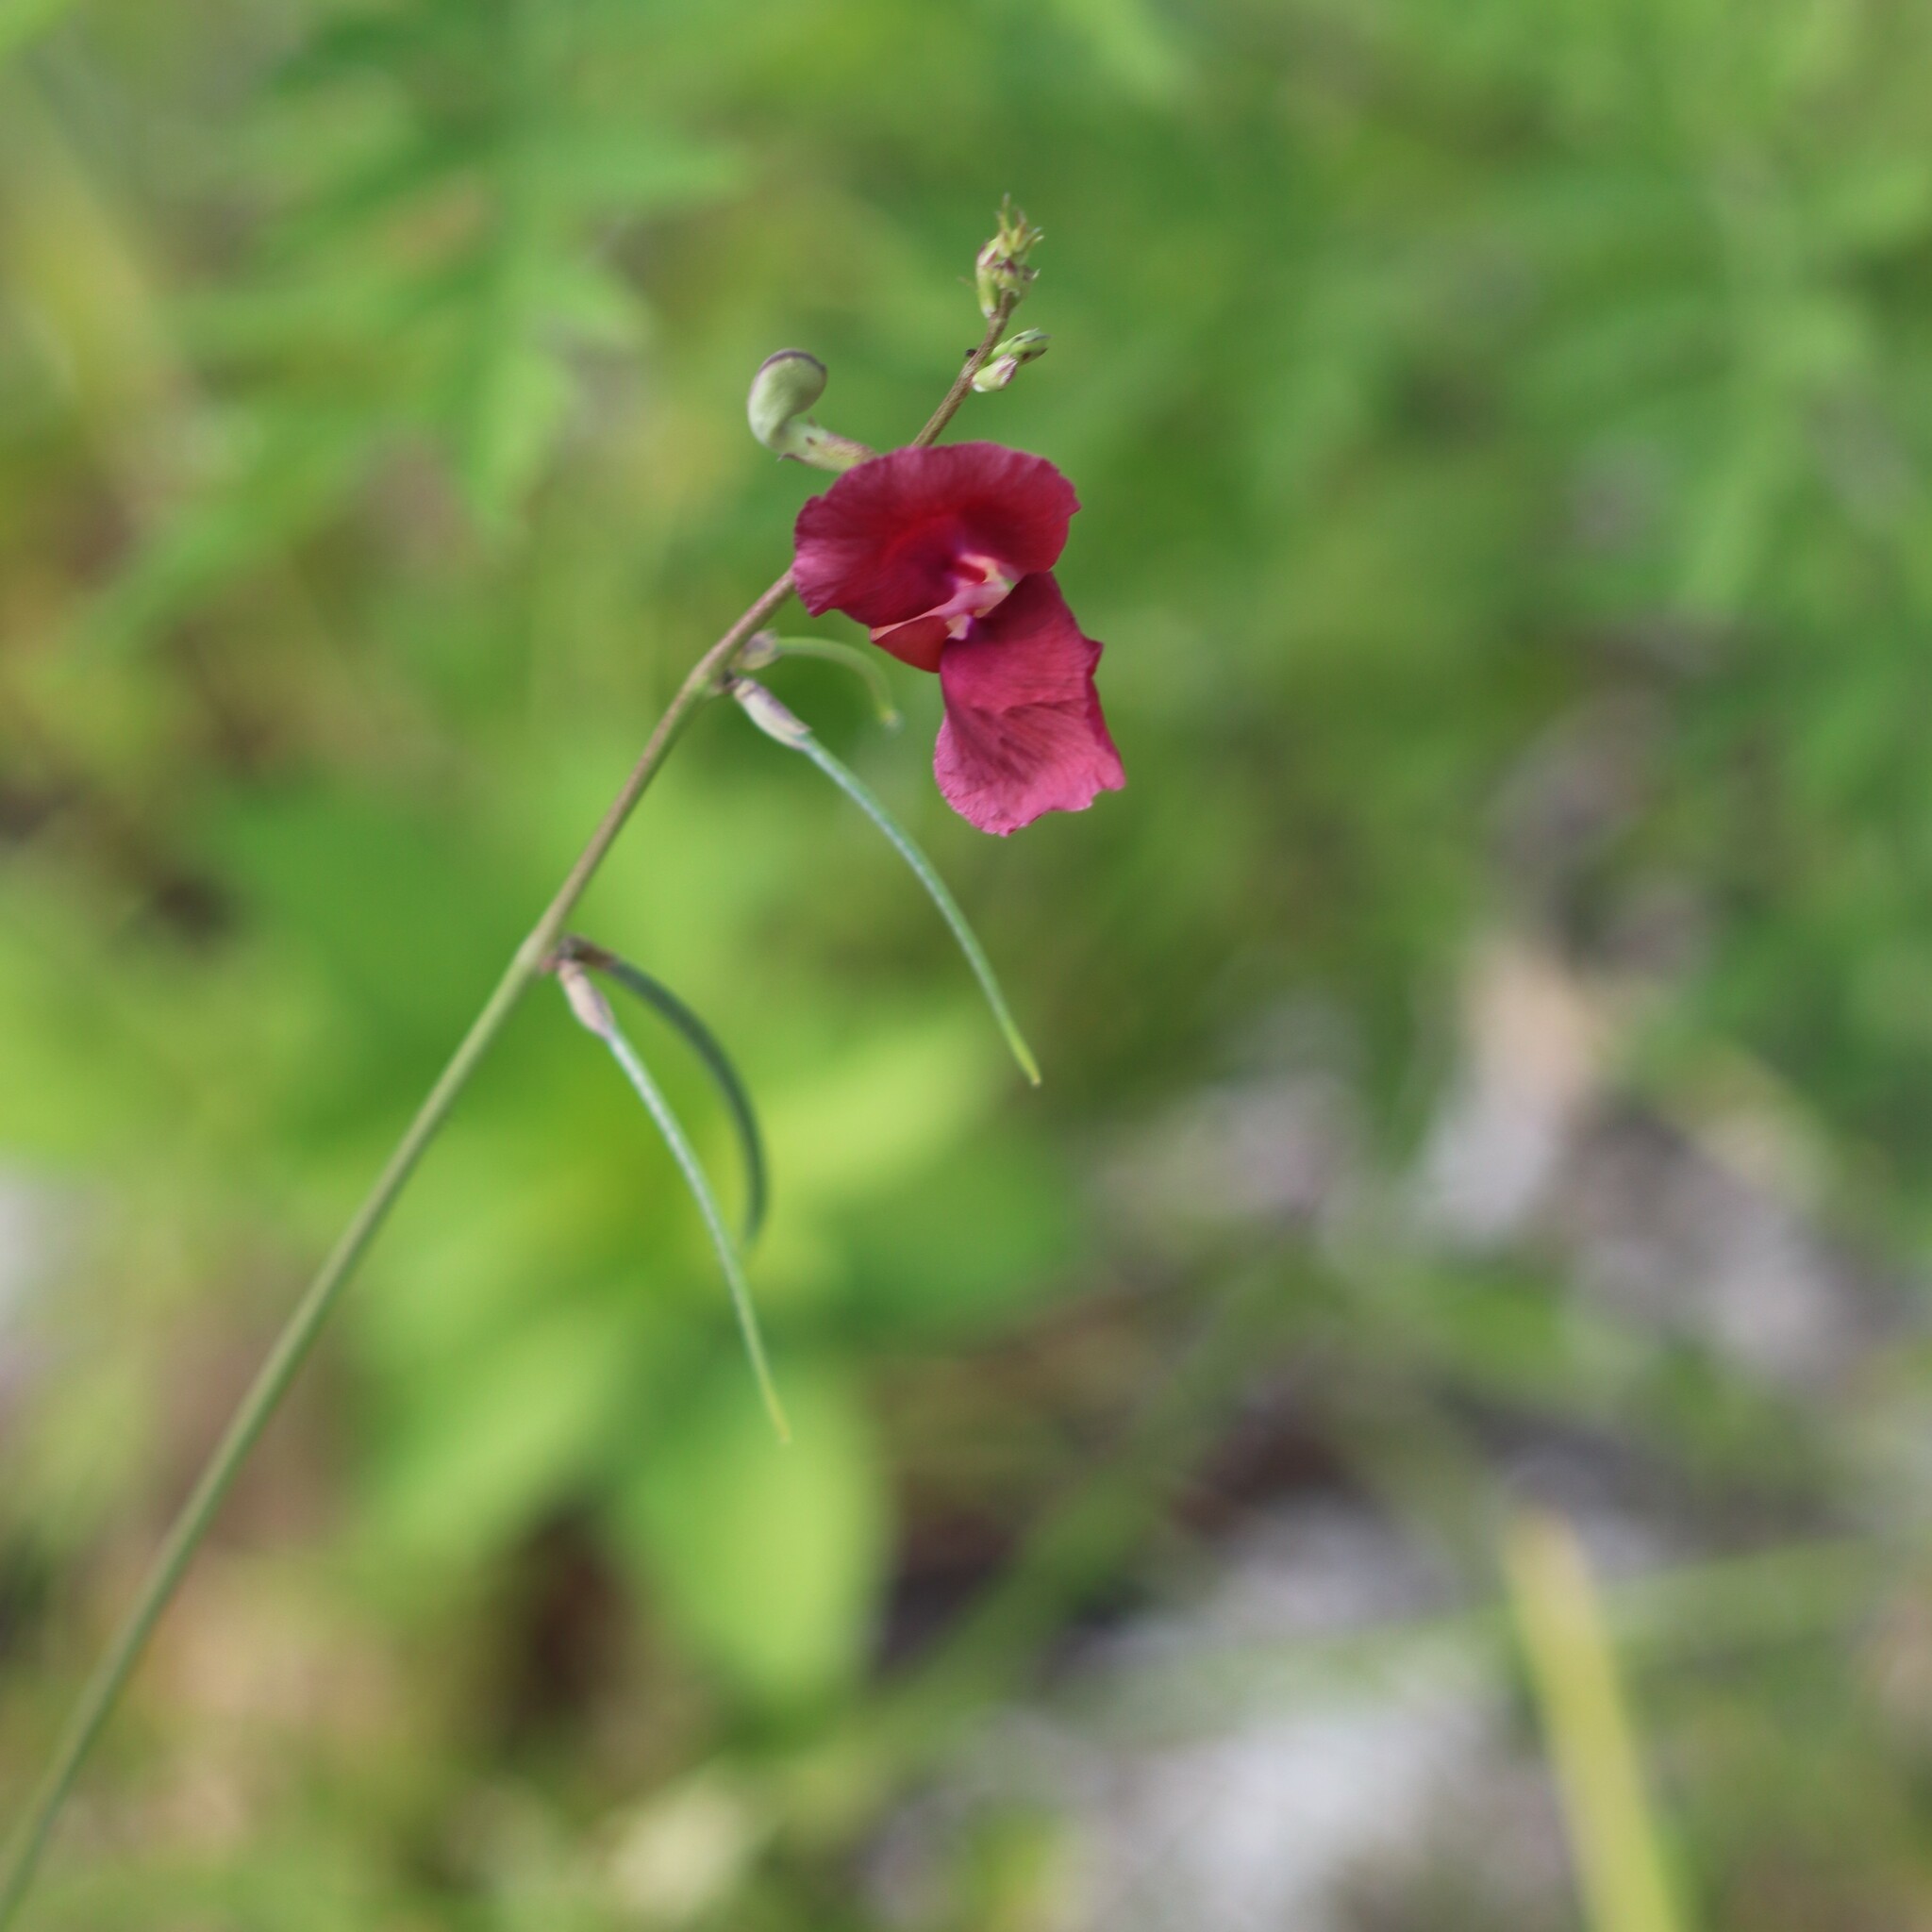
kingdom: Plantae
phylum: Tracheophyta
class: Magnoliopsida
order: Fabales
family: Fabaceae
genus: Macroptilium
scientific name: Macroptilium lathyroides
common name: Wild bushbean
